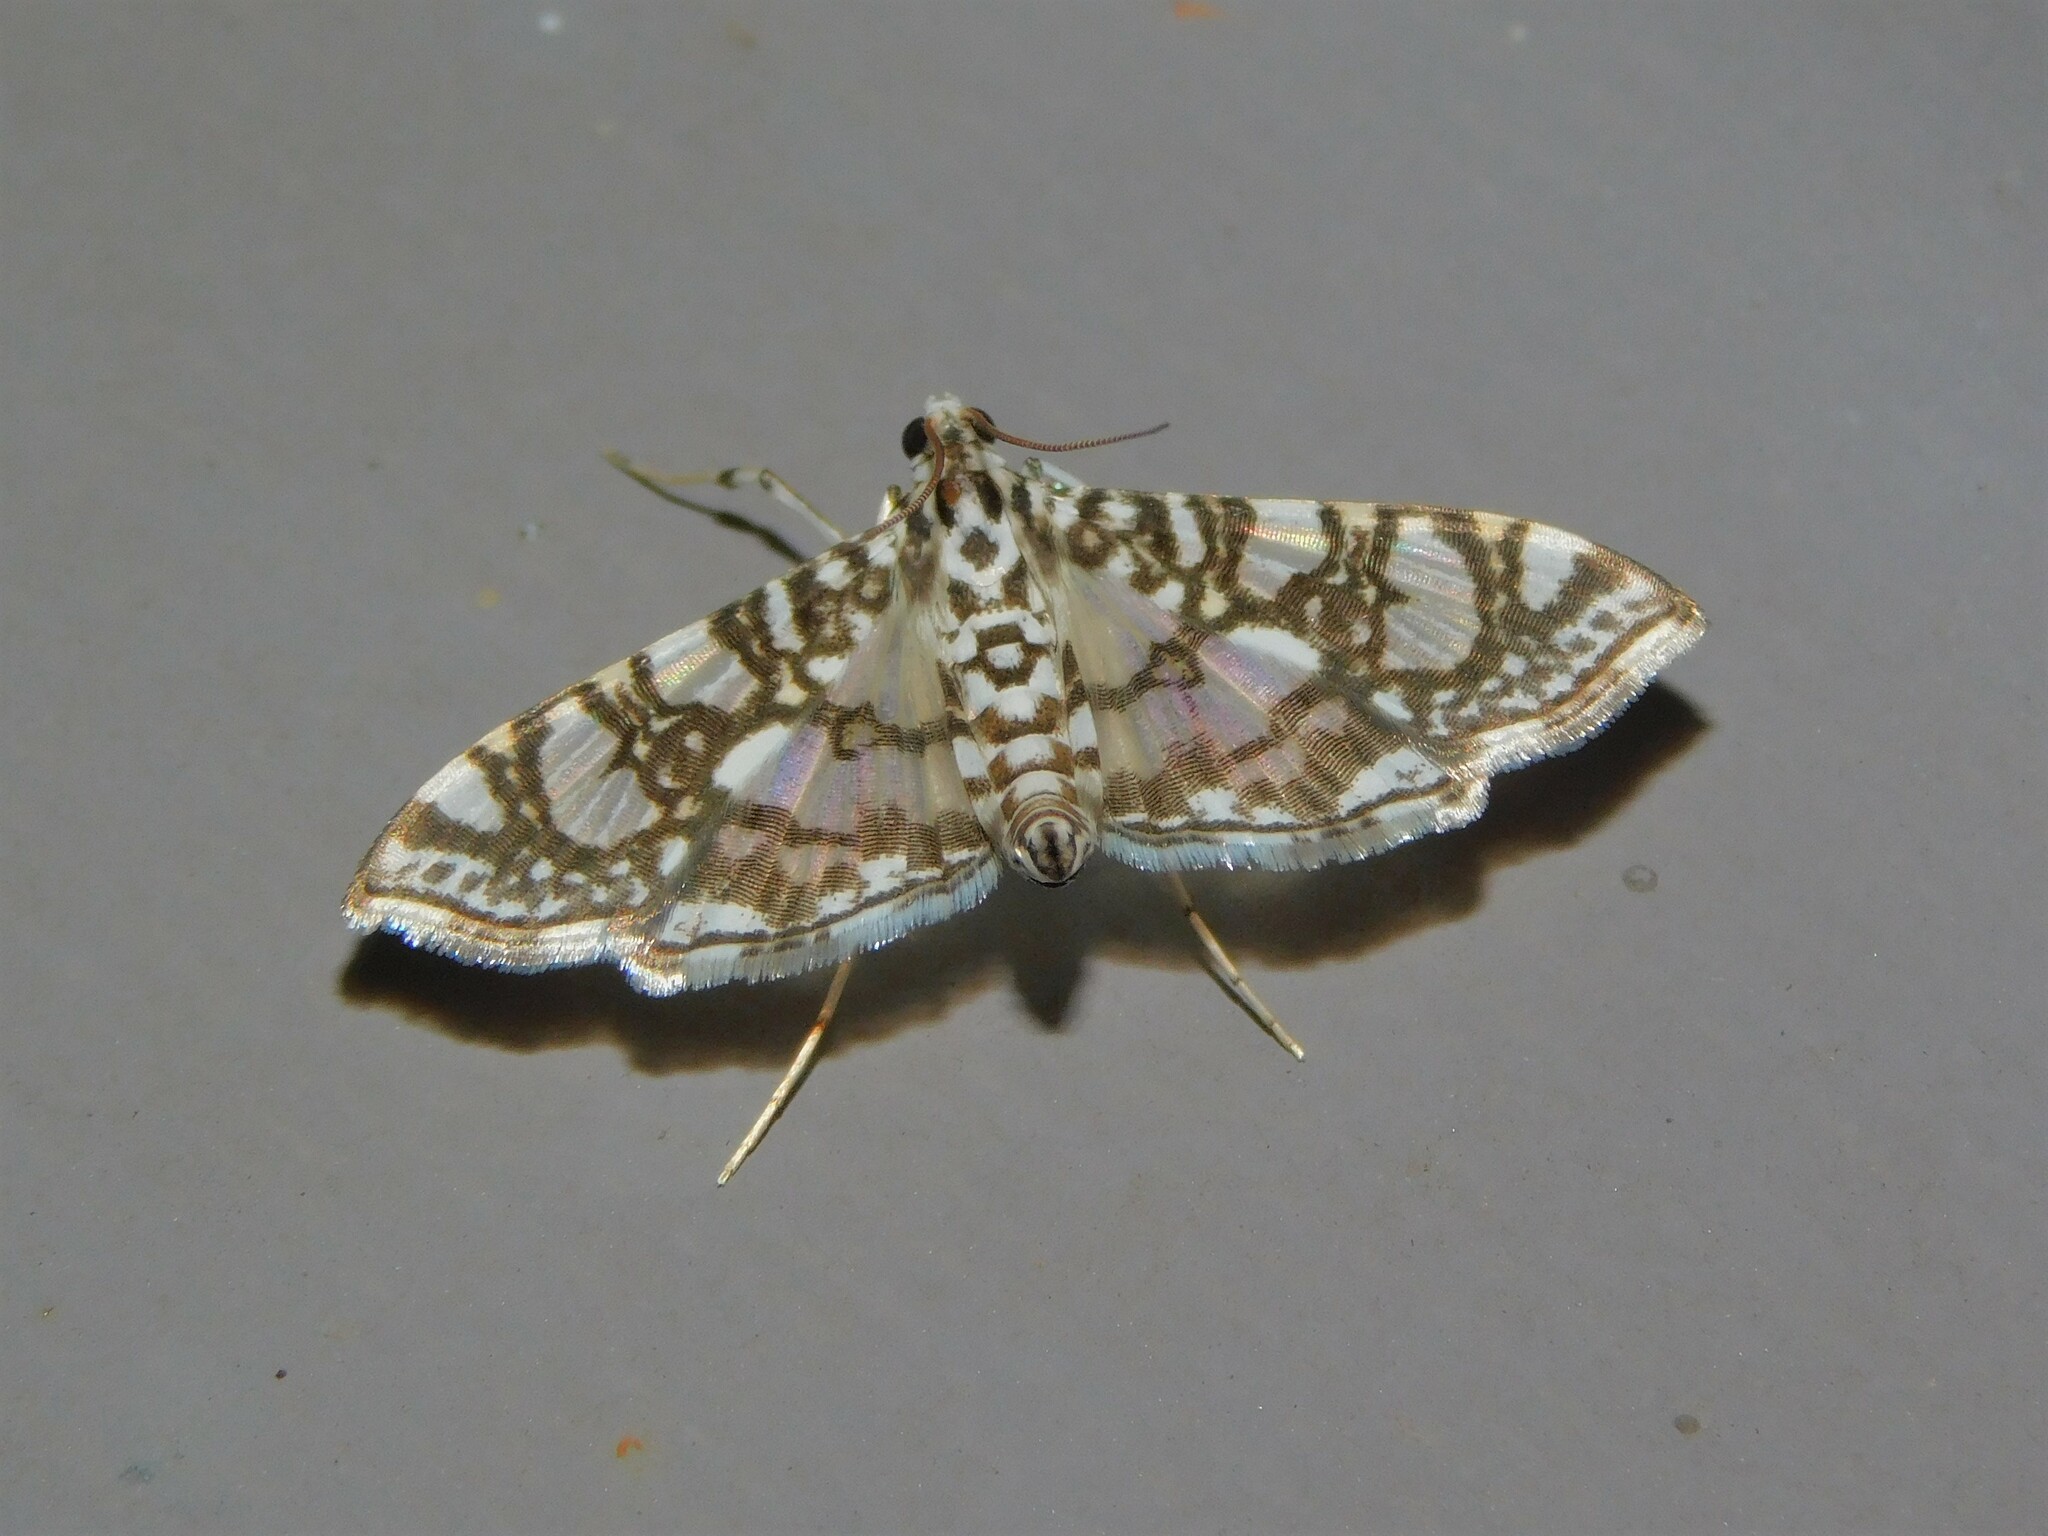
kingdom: Animalia
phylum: Arthropoda
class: Insecta
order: Lepidoptera
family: Crambidae
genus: Glyphodes
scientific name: Glyphodes onychinalis
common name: Swan plant moth
